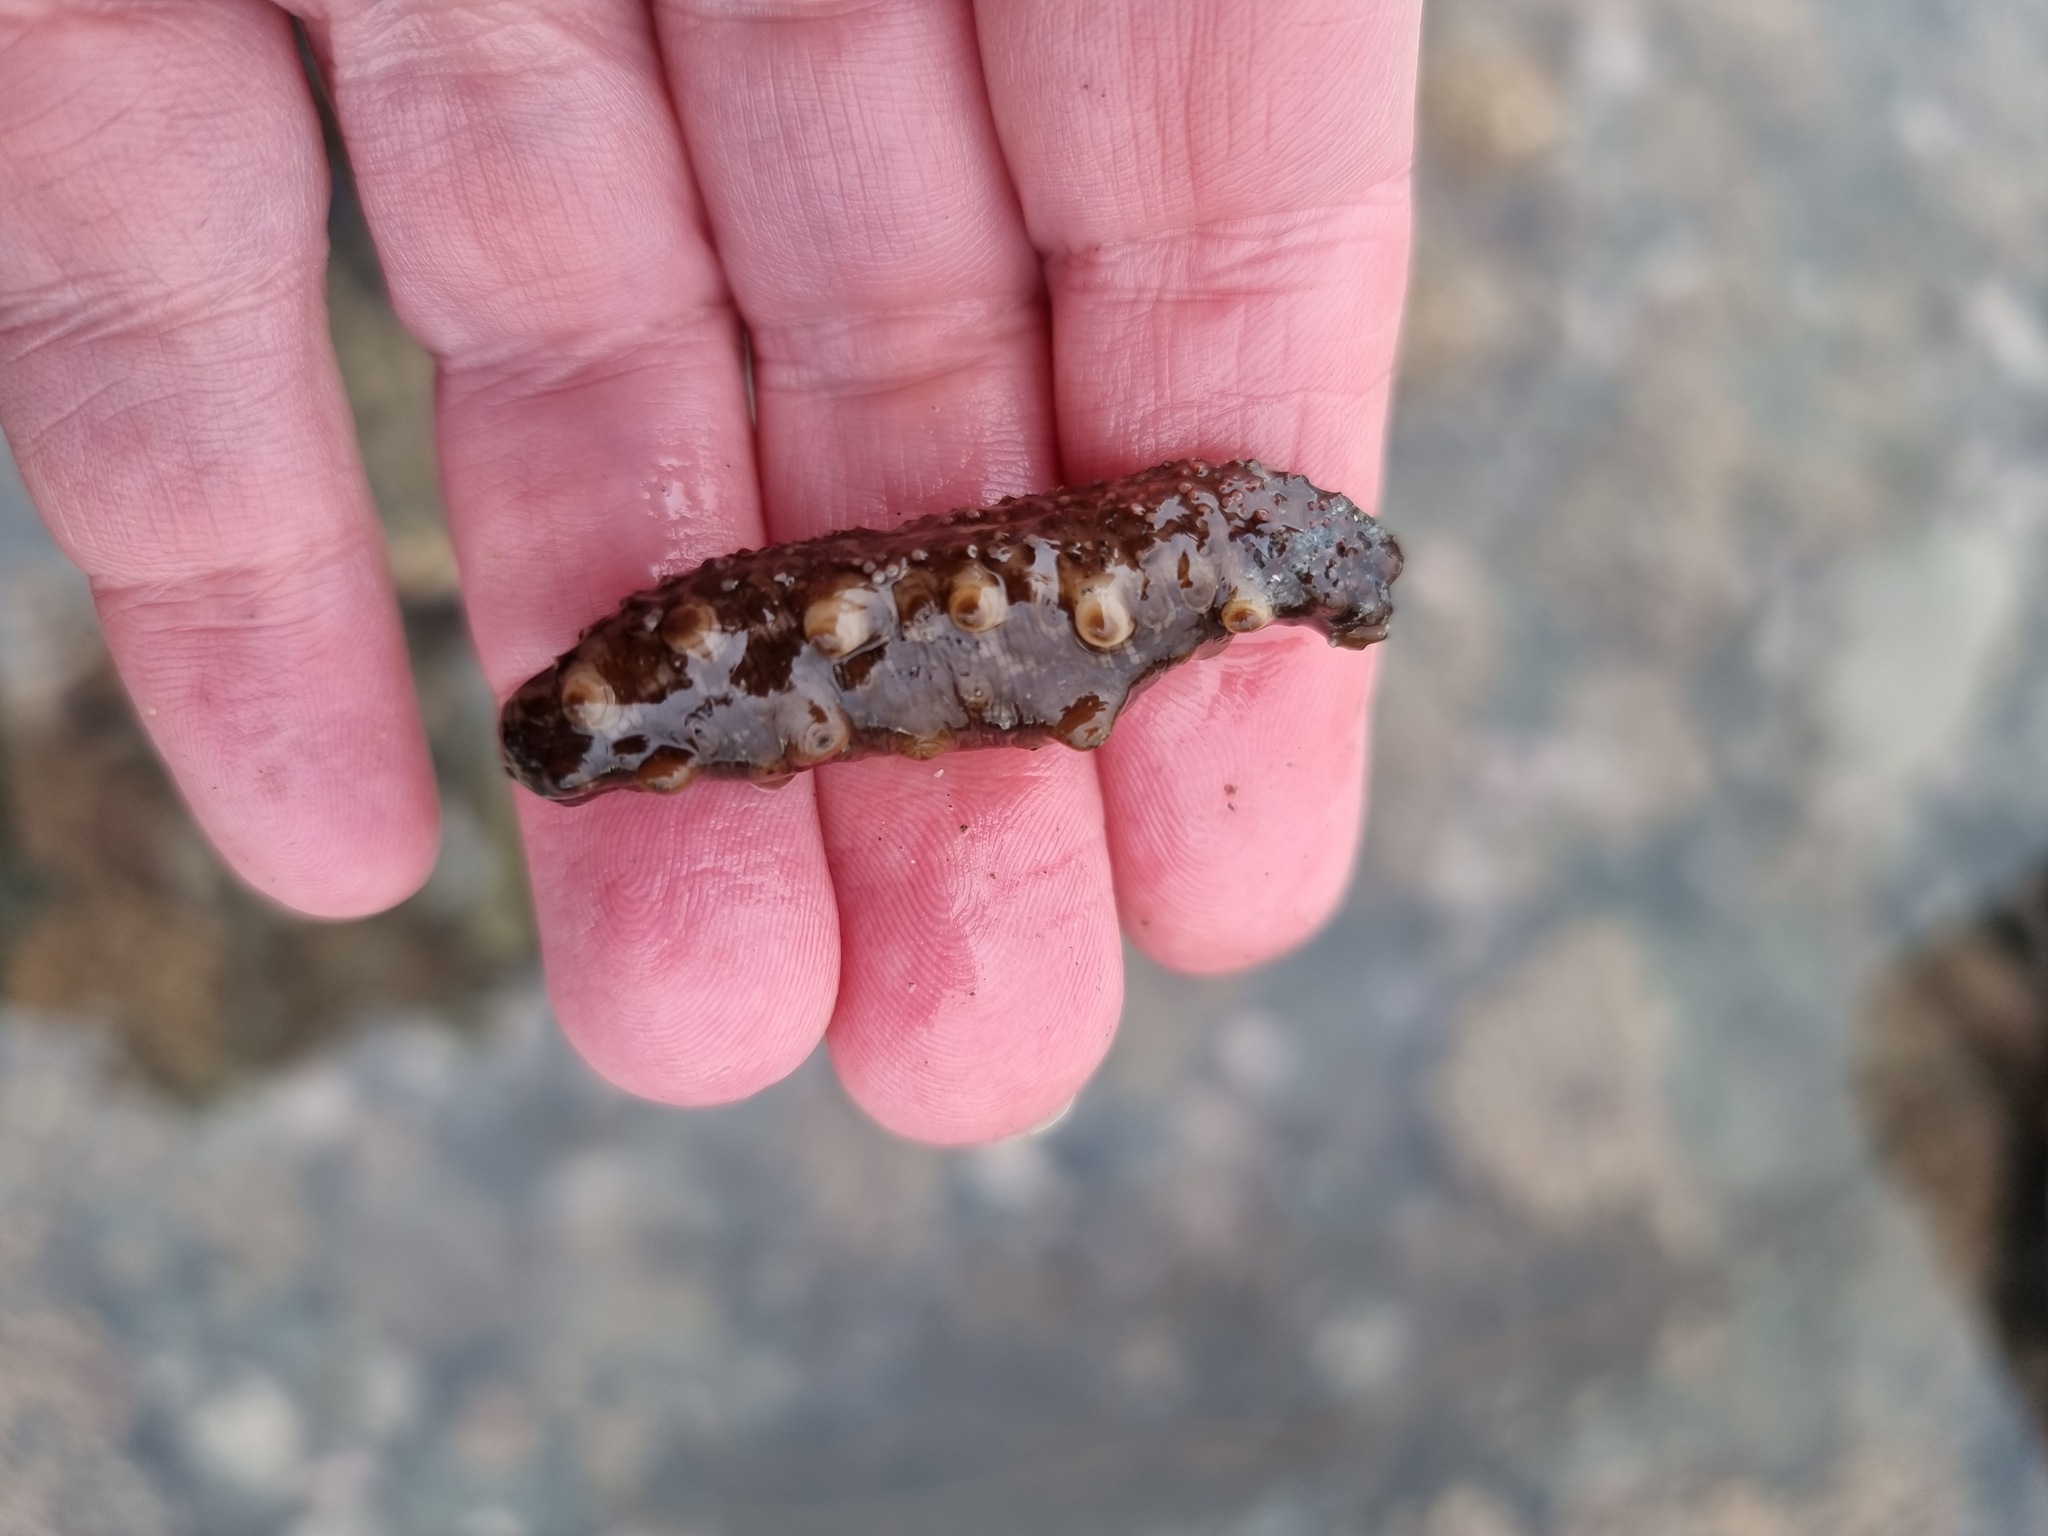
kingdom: Animalia
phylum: Echinodermata
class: Holothuroidea
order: Synallactida
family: Stichopodidae
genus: Australostichopus
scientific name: Australostichopus mollis
